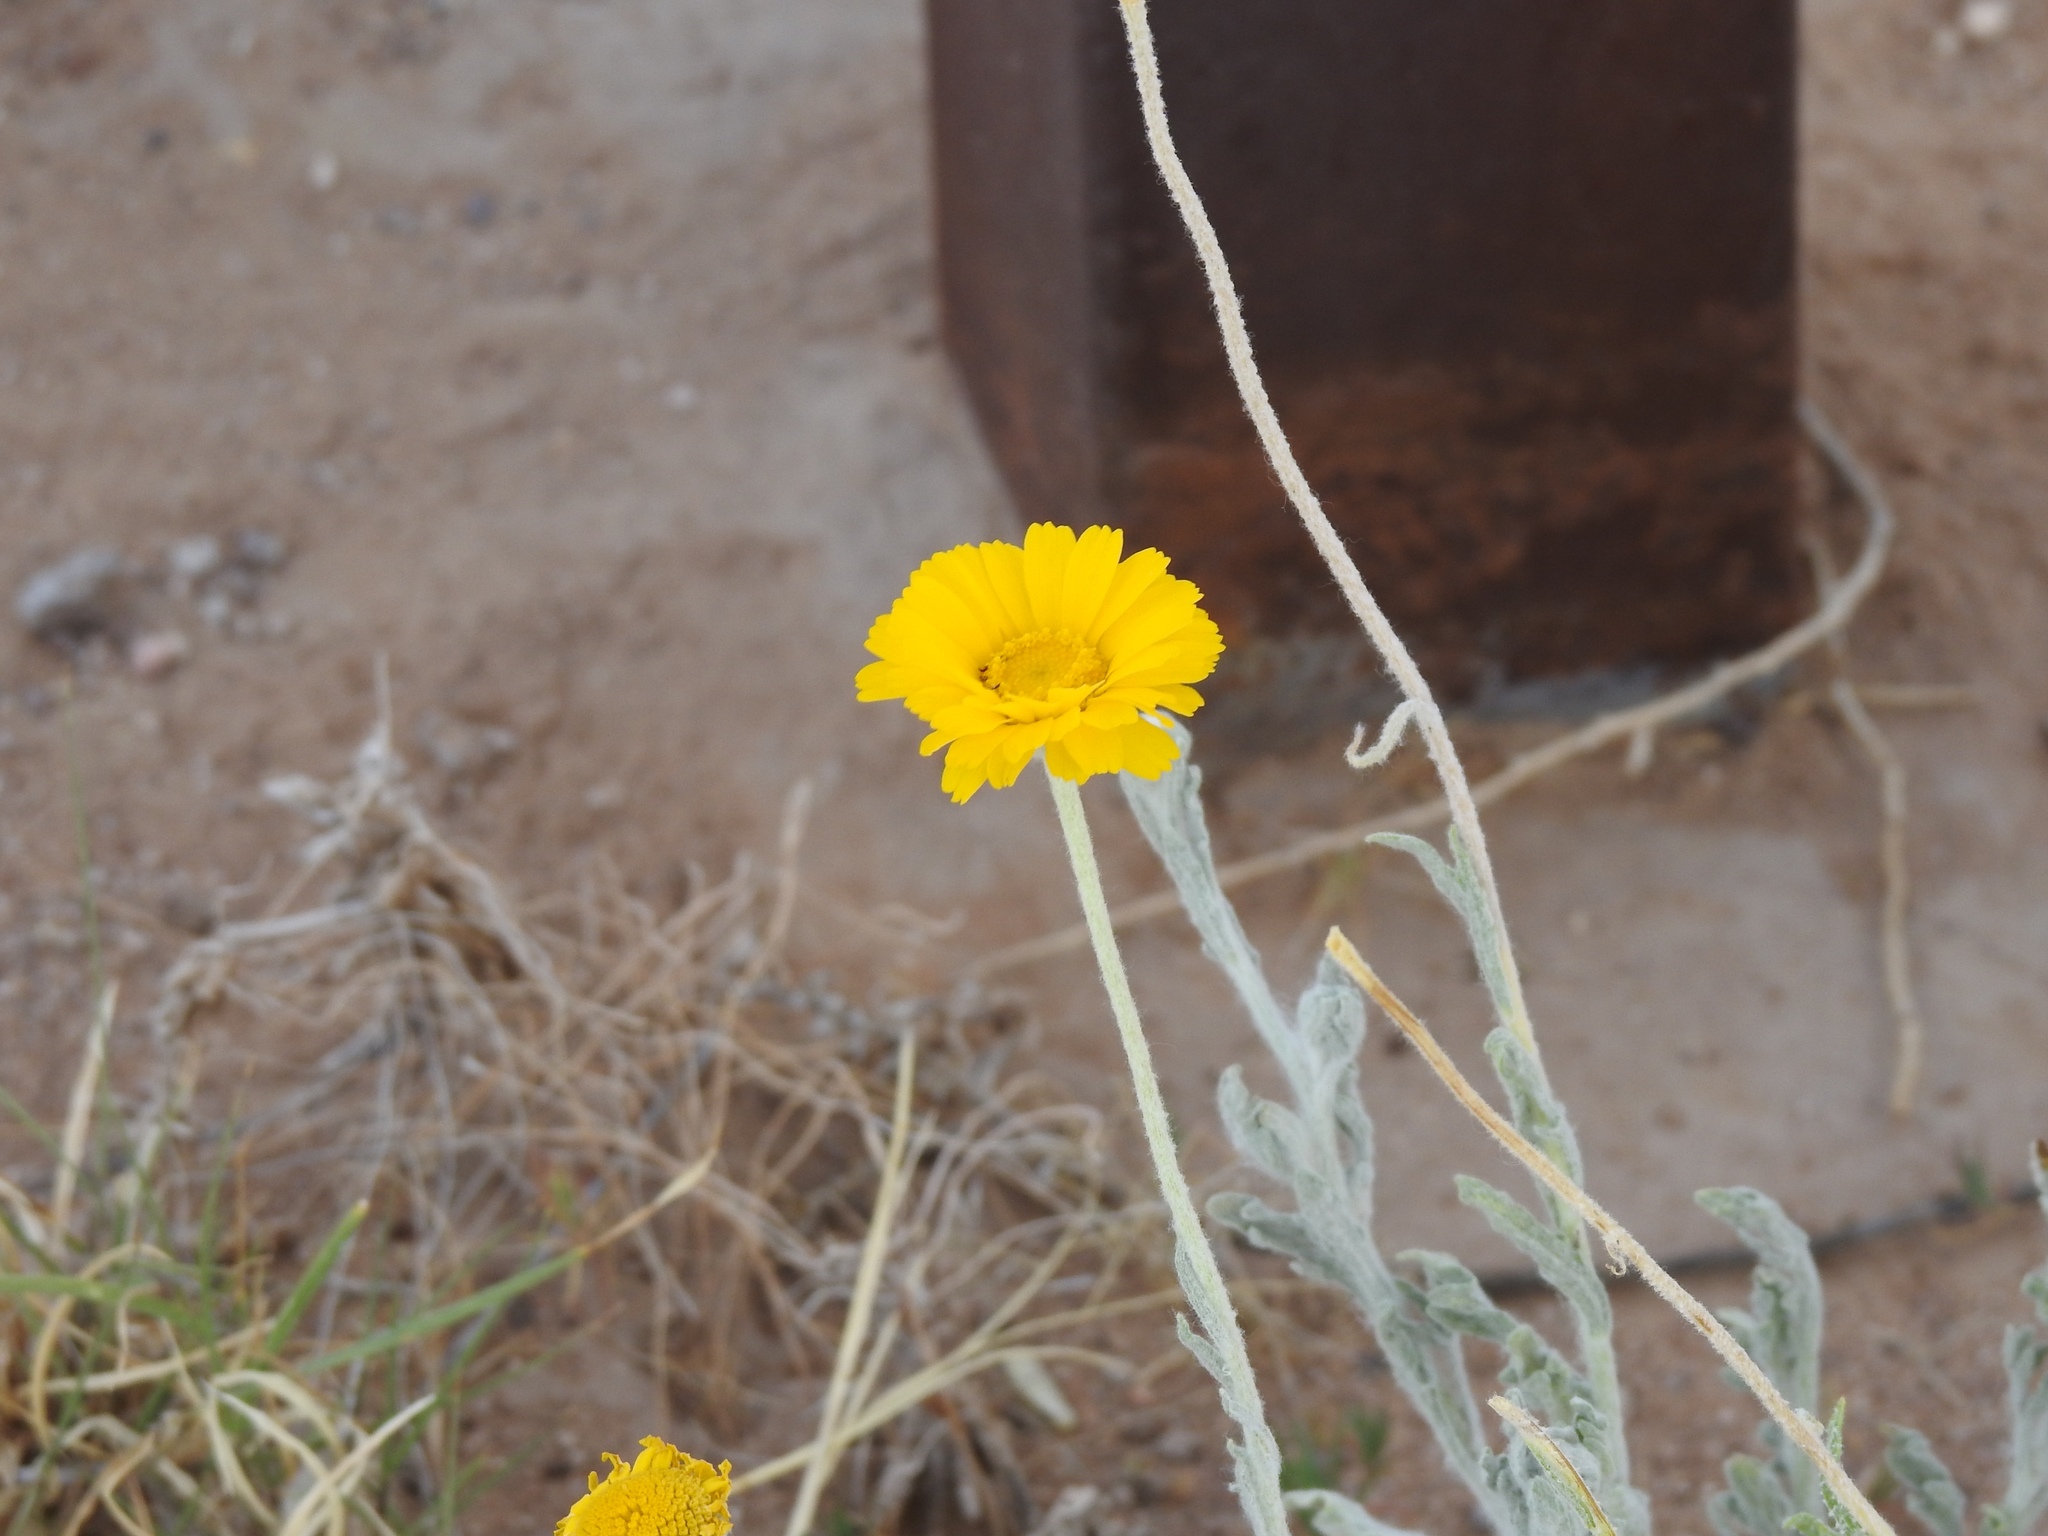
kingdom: Plantae
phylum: Tracheophyta
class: Magnoliopsida
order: Asterales
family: Asteraceae
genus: Baileya
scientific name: Baileya multiradiata
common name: Desert-marigold
